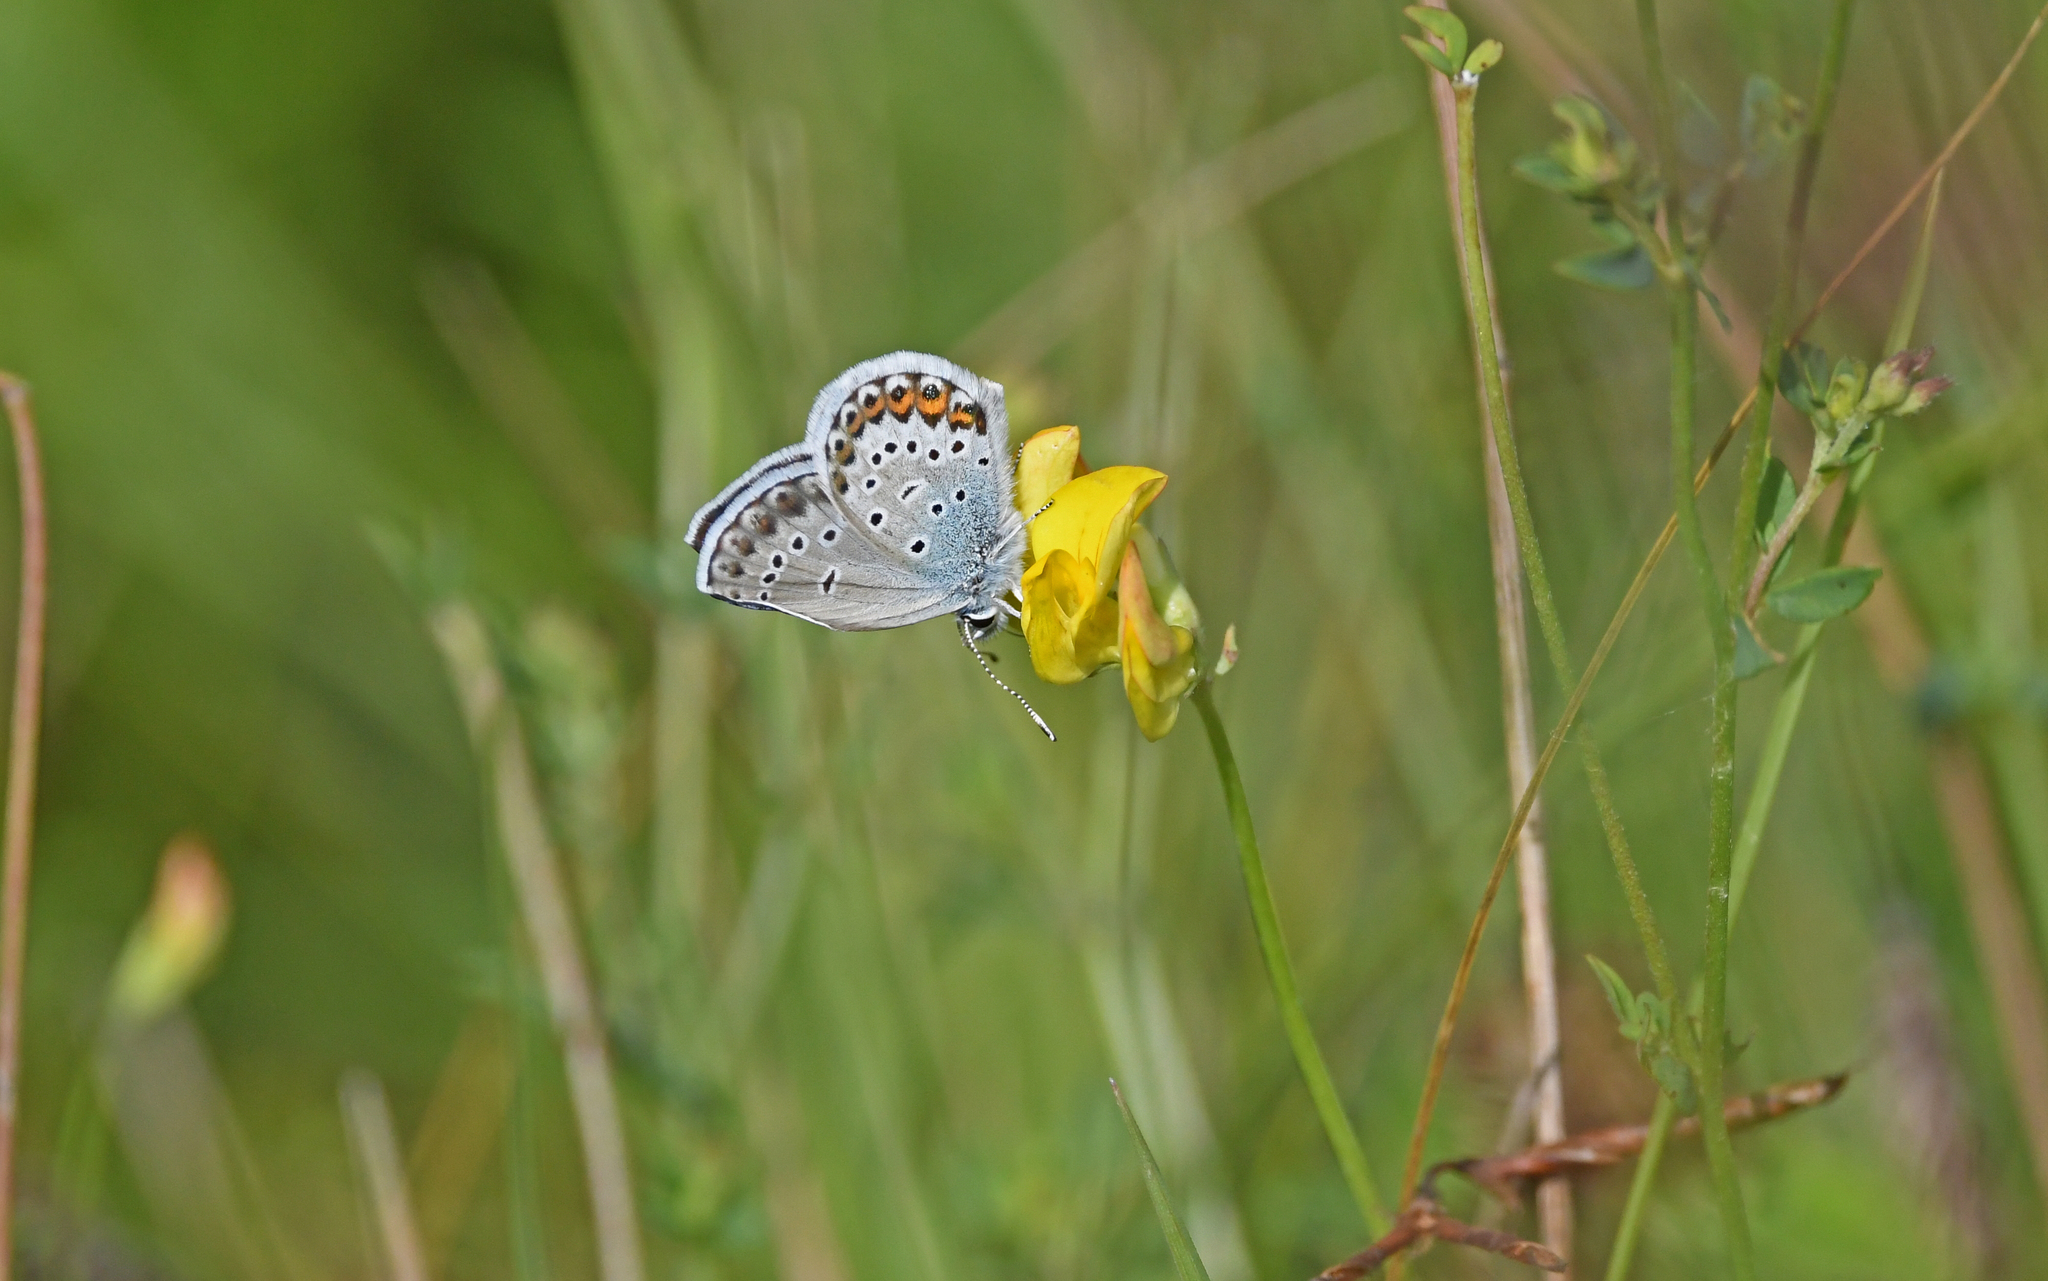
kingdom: Animalia
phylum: Arthropoda
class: Insecta
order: Lepidoptera
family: Lycaenidae
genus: Lycaeides
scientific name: Lycaeides idas
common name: Northern blue
